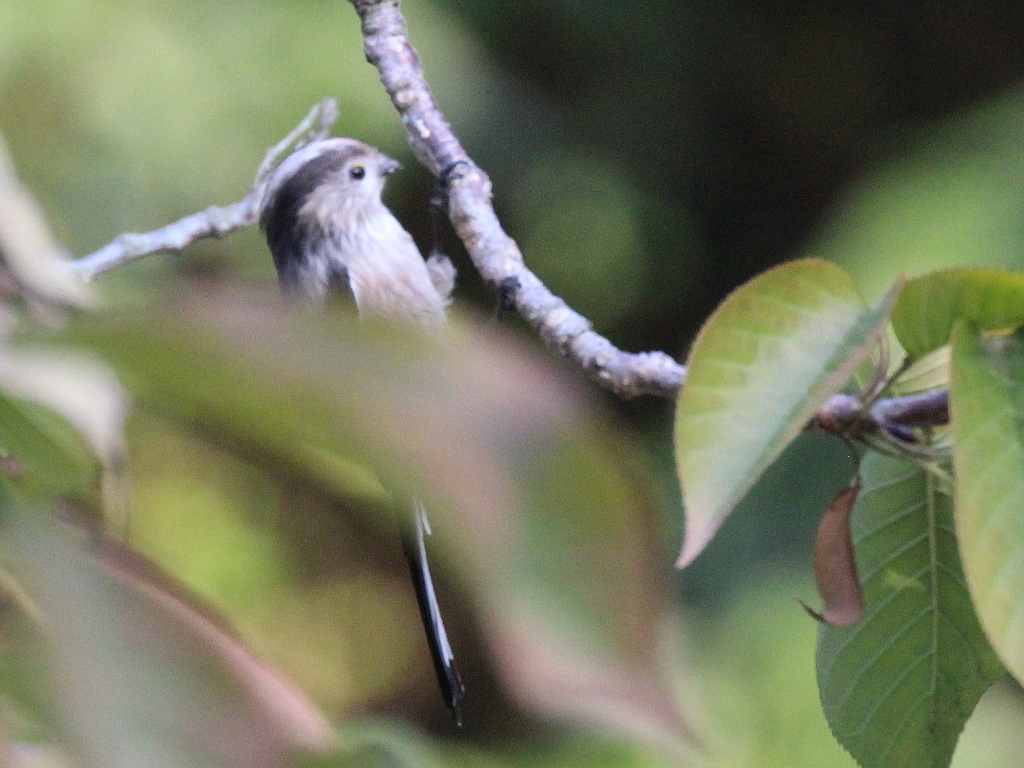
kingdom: Animalia
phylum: Chordata
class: Aves
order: Passeriformes
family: Aegithalidae
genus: Aegithalos
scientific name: Aegithalos caudatus
